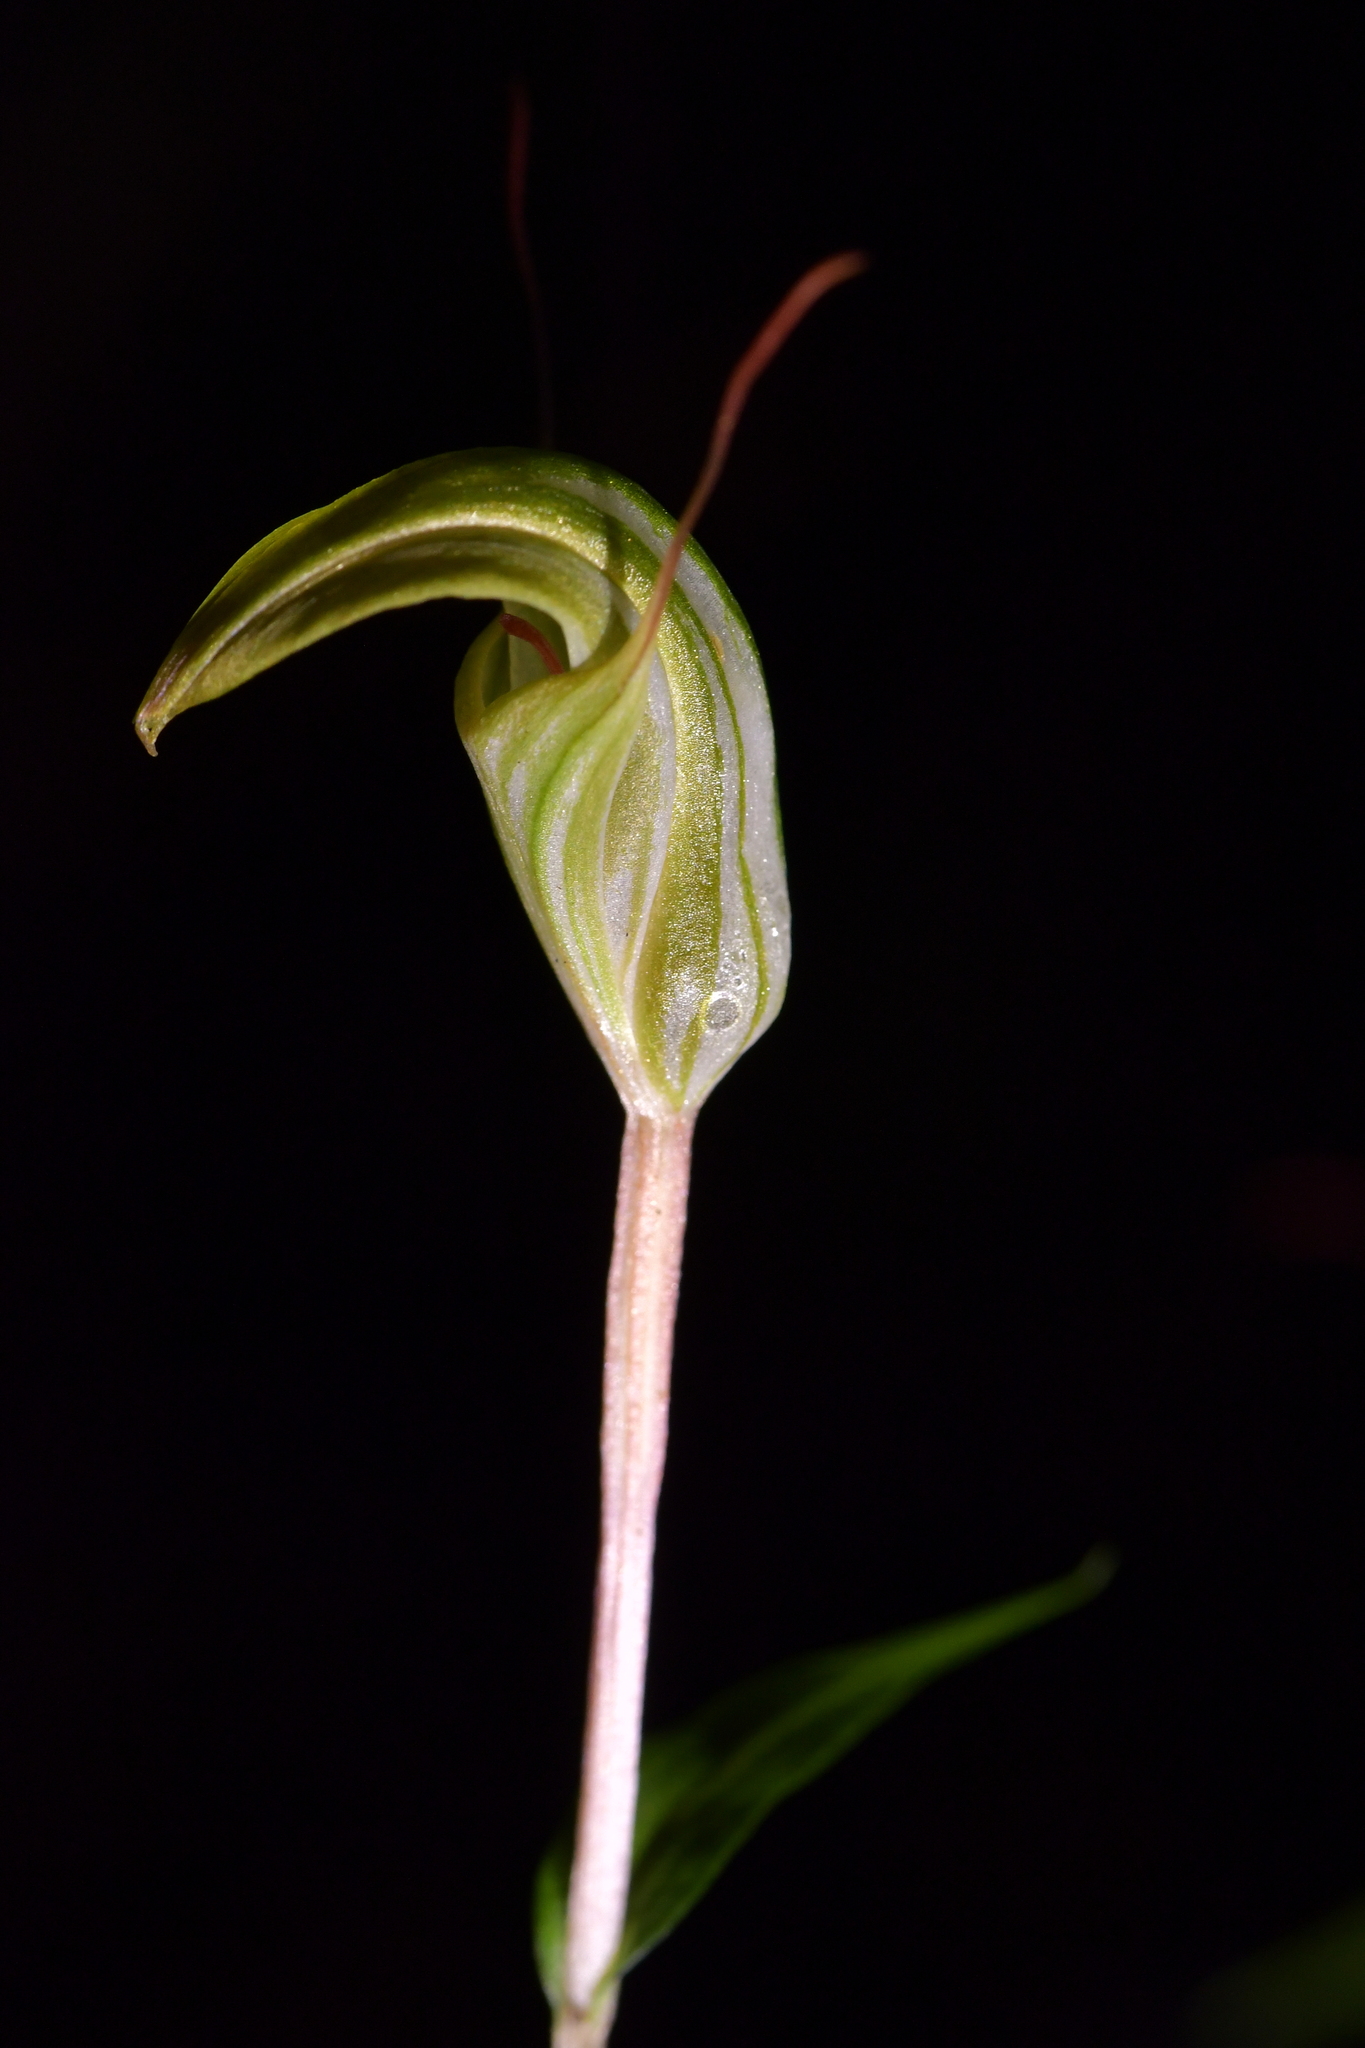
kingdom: Plantae
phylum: Tracheophyta
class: Liliopsida
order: Asparagales
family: Orchidaceae
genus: Pterostylis
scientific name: Pterostylis alobula
